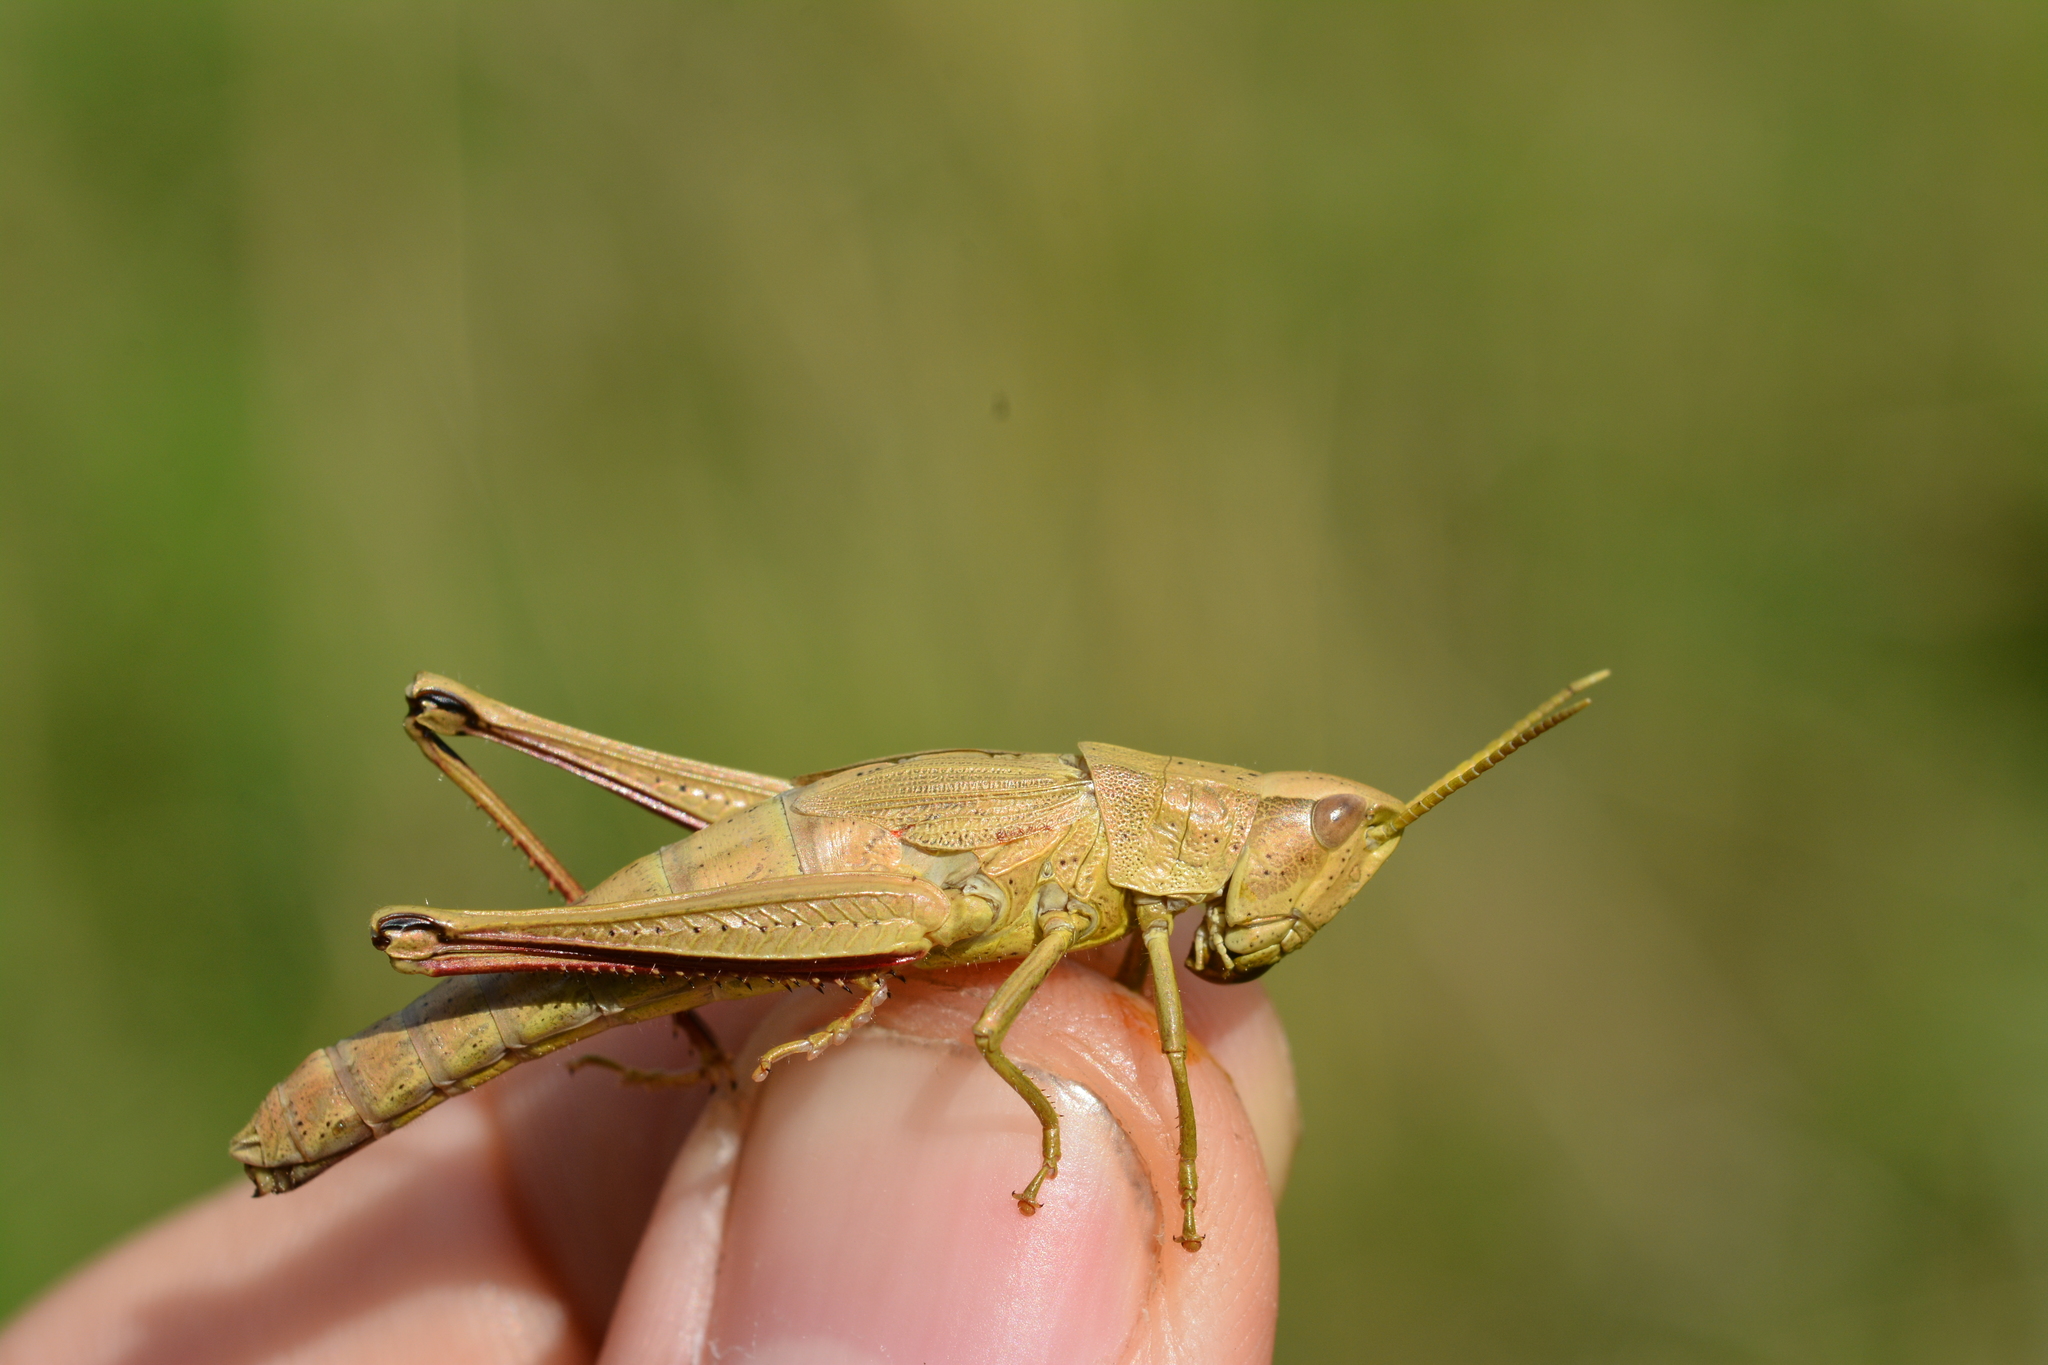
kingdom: Animalia
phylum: Arthropoda
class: Insecta
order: Orthoptera
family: Acrididae
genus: Chrysochraon
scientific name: Chrysochraon dispar
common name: Large gold grasshopper
